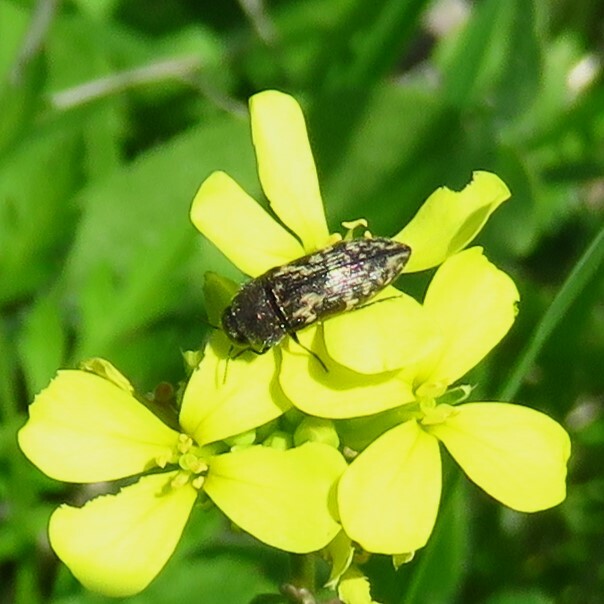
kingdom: Animalia
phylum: Arthropoda
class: Insecta
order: Coleoptera
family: Buprestidae
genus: Acmaeodera
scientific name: Acmaeodera neglecta
